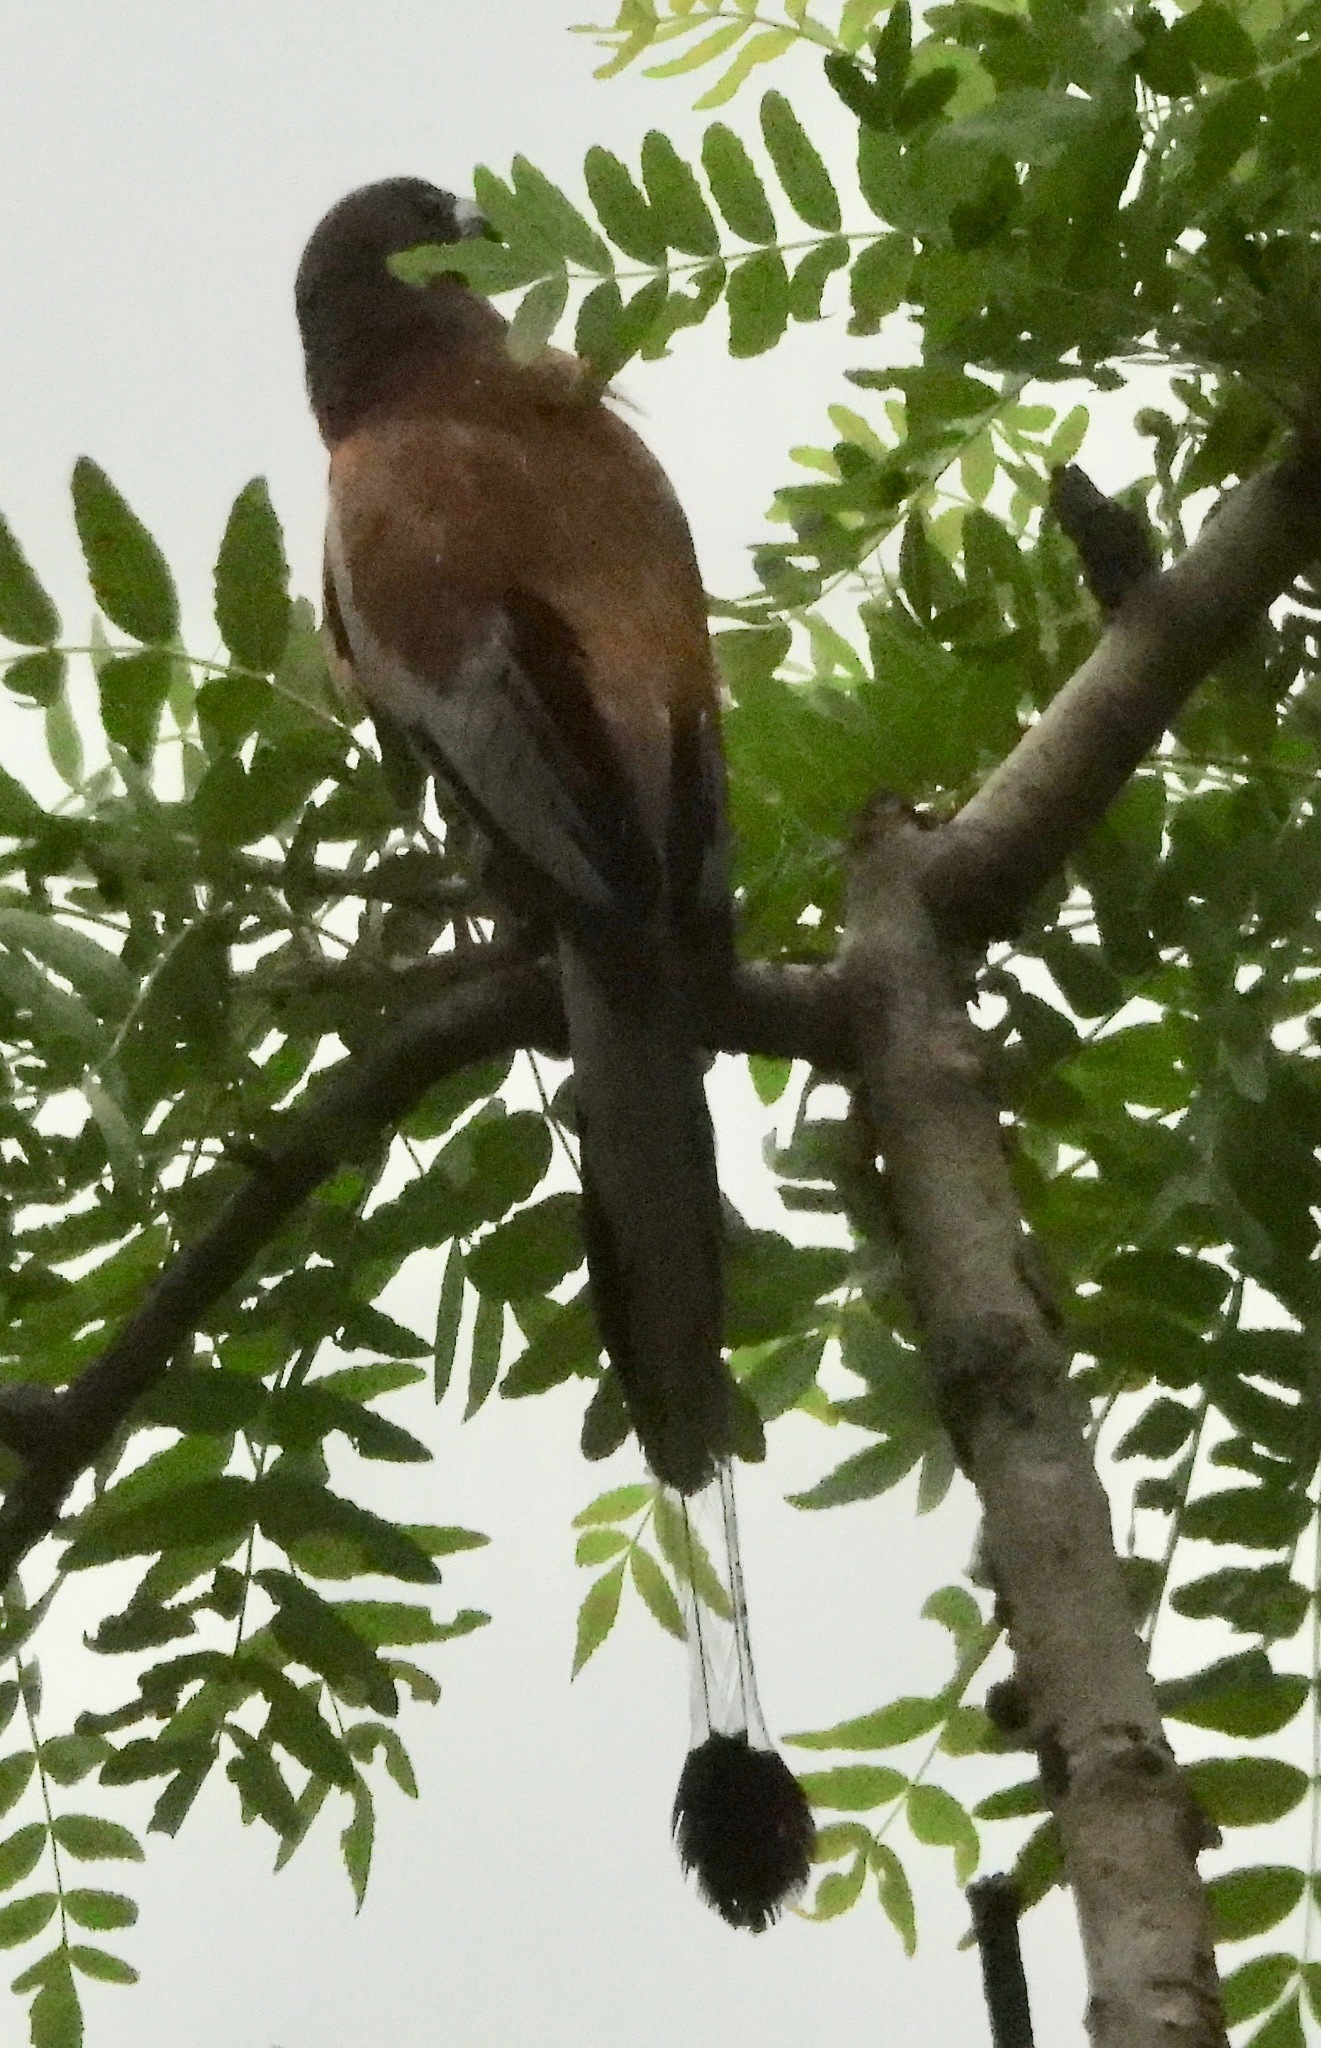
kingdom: Animalia
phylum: Chordata
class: Aves
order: Passeriformes
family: Corvidae
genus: Dendrocitta
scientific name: Dendrocitta vagabunda
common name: Rufous treepie
